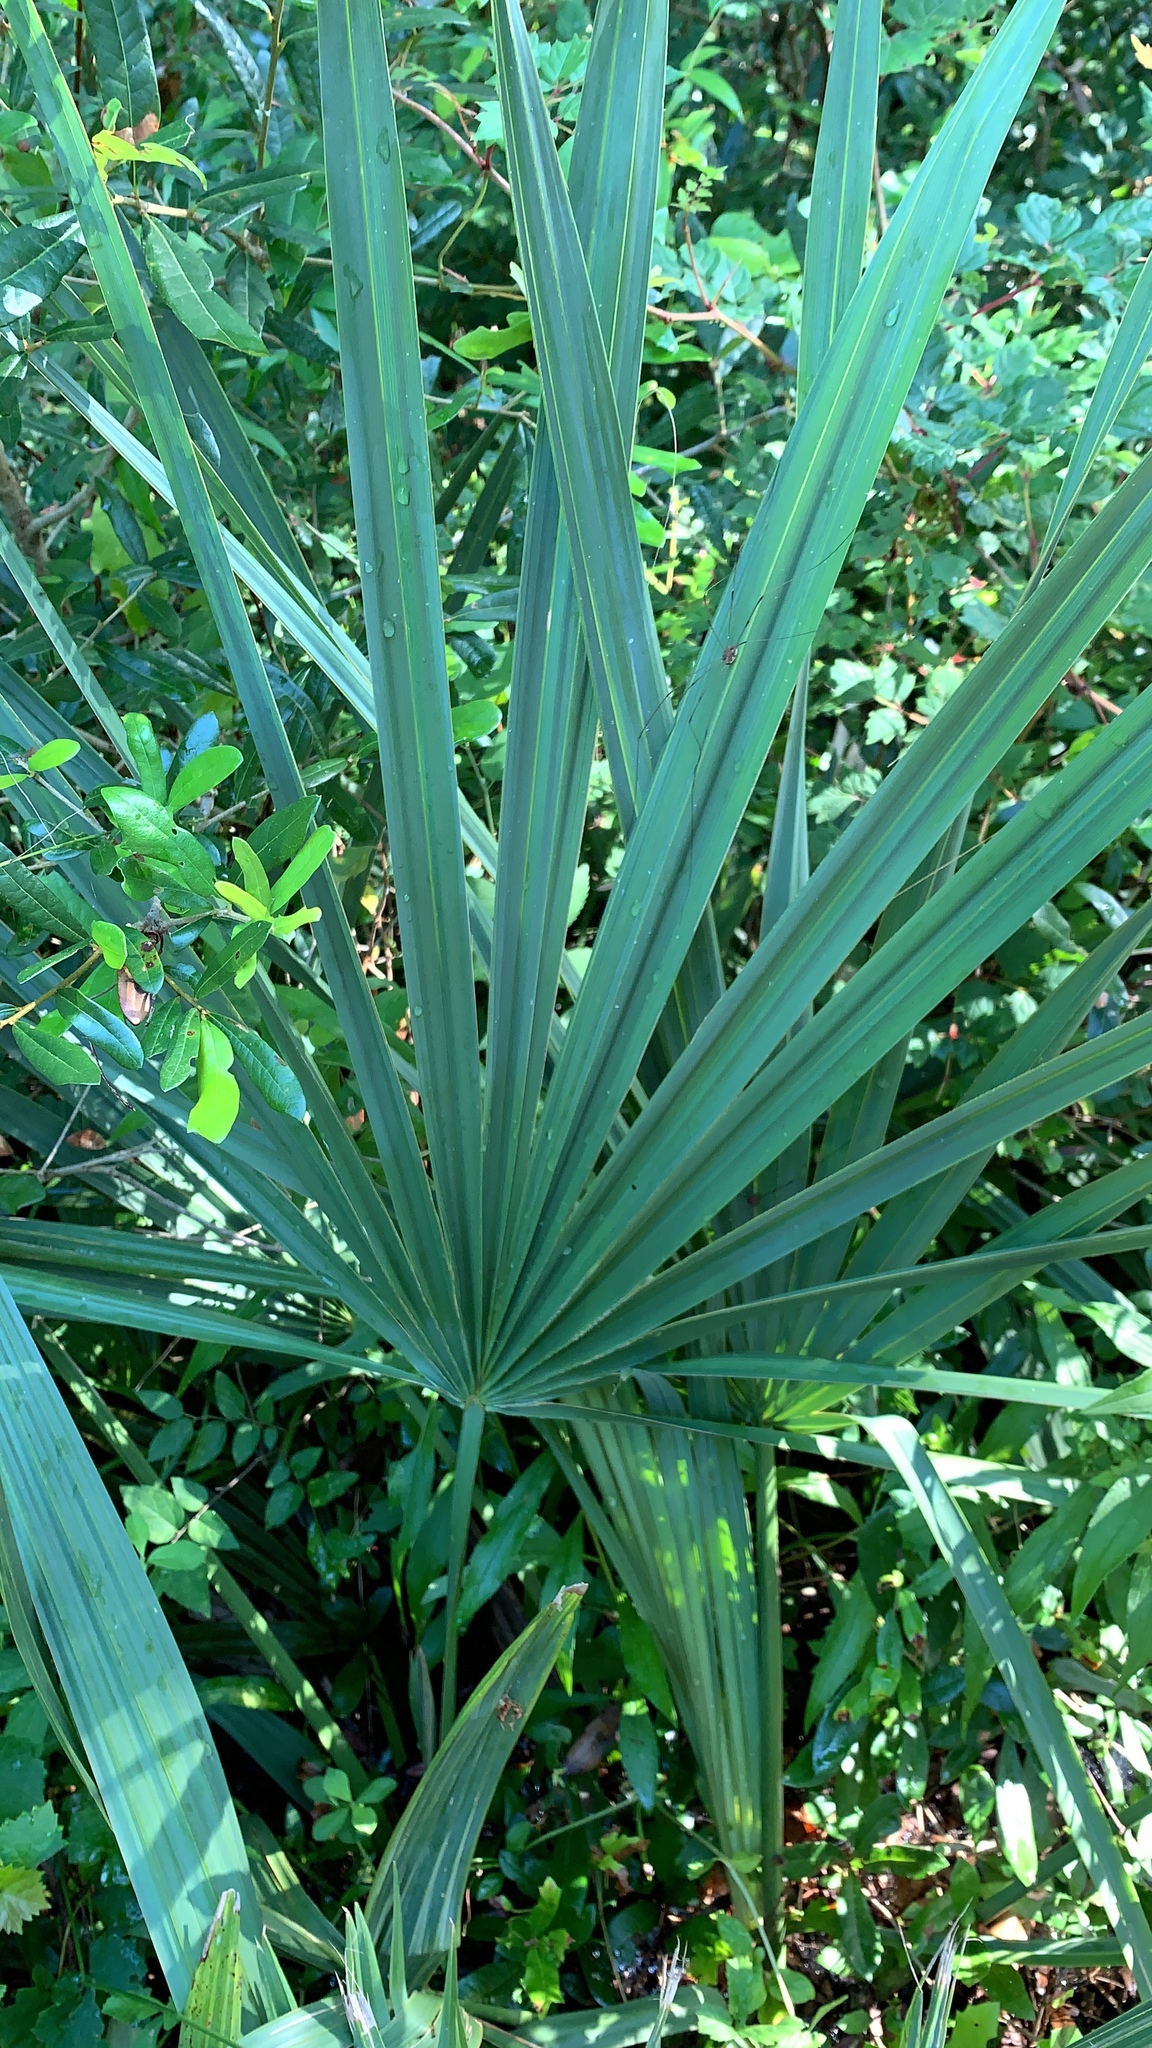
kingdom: Plantae
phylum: Tracheophyta
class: Liliopsida
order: Arecales
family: Arecaceae
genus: Sabal
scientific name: Sabal minor
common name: Dwarf palmetto
